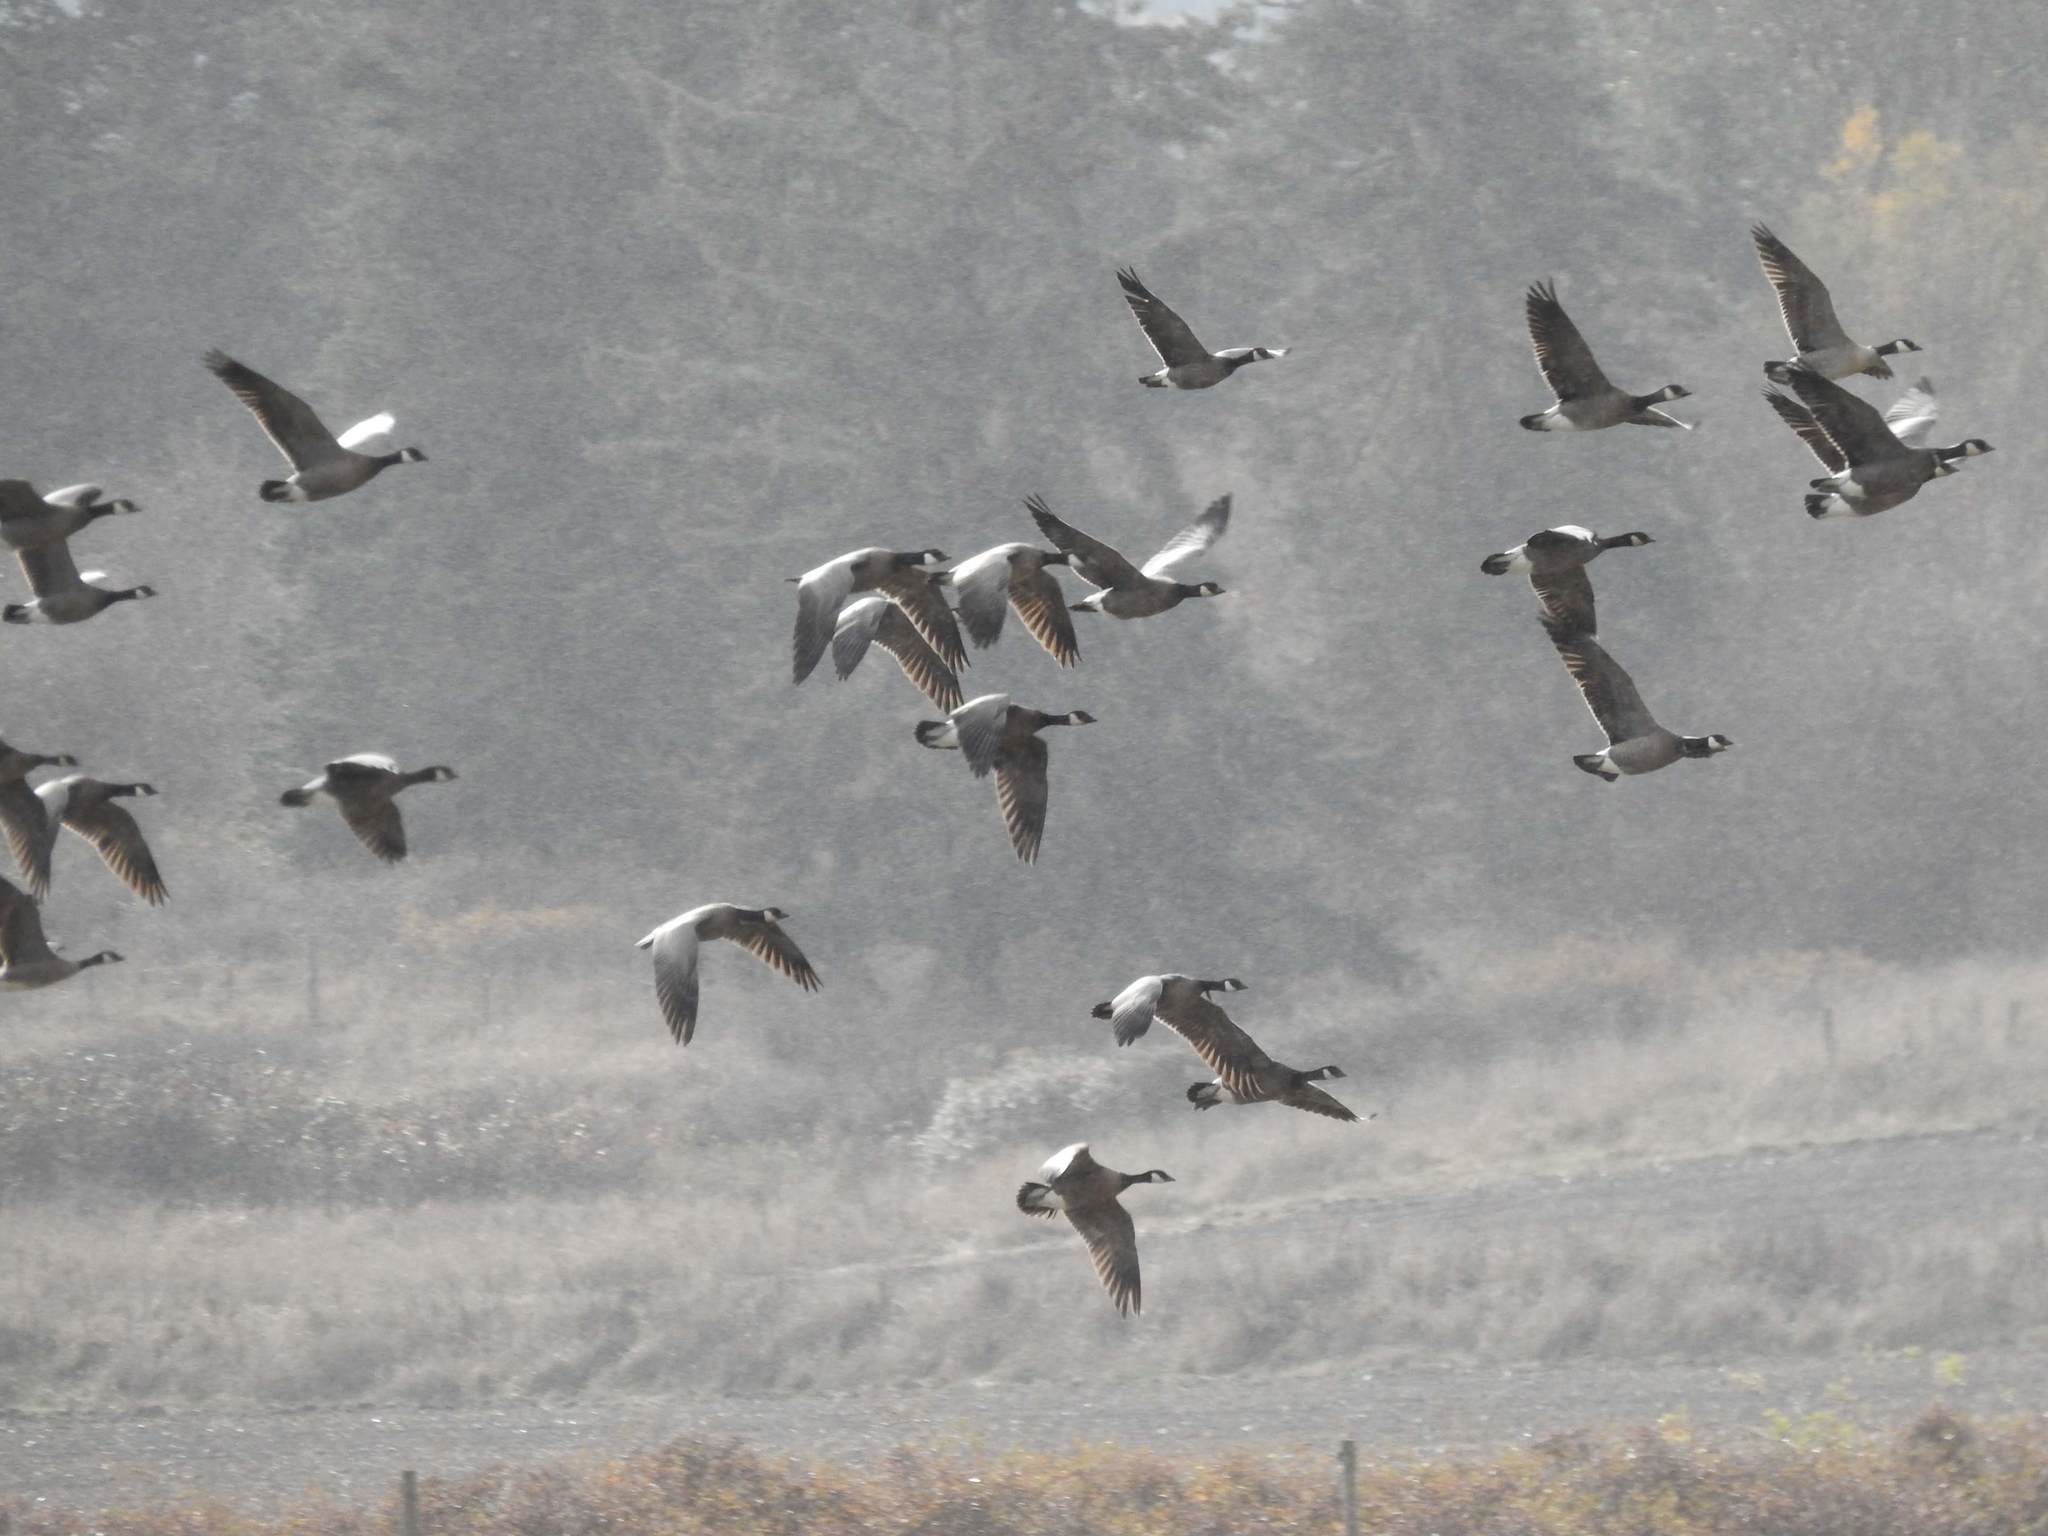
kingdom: Animalia
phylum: Chordata
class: Aves
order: Anseriformes
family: Anatidae
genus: Branta
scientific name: Branta hutchinsii
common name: Cackling goose
